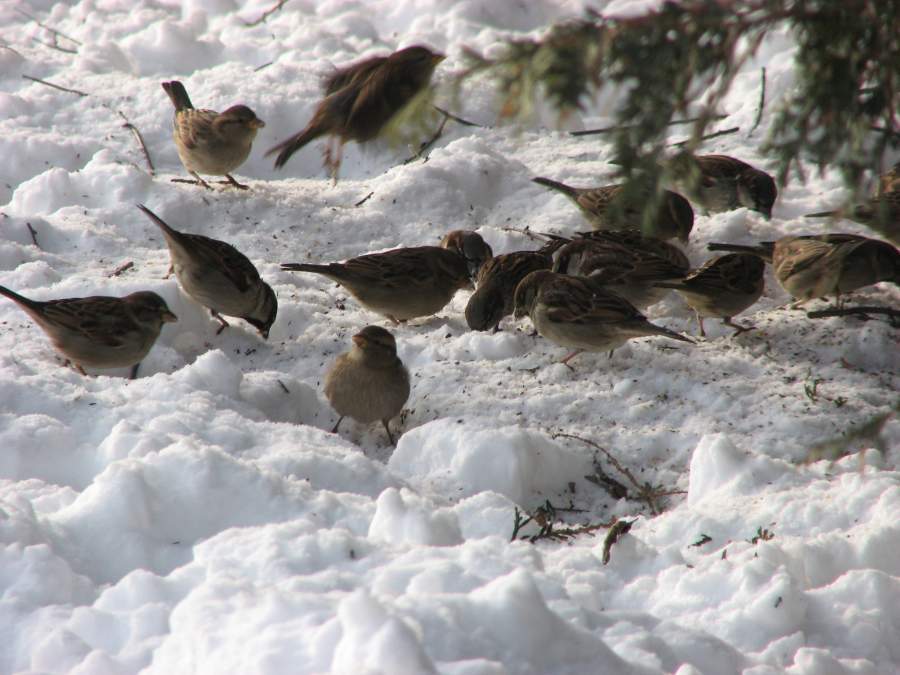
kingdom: Animalia
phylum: Chordata
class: Aves
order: Passeriformes
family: Passeridae
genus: Passer
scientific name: Passer domesticus
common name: House sparrow
